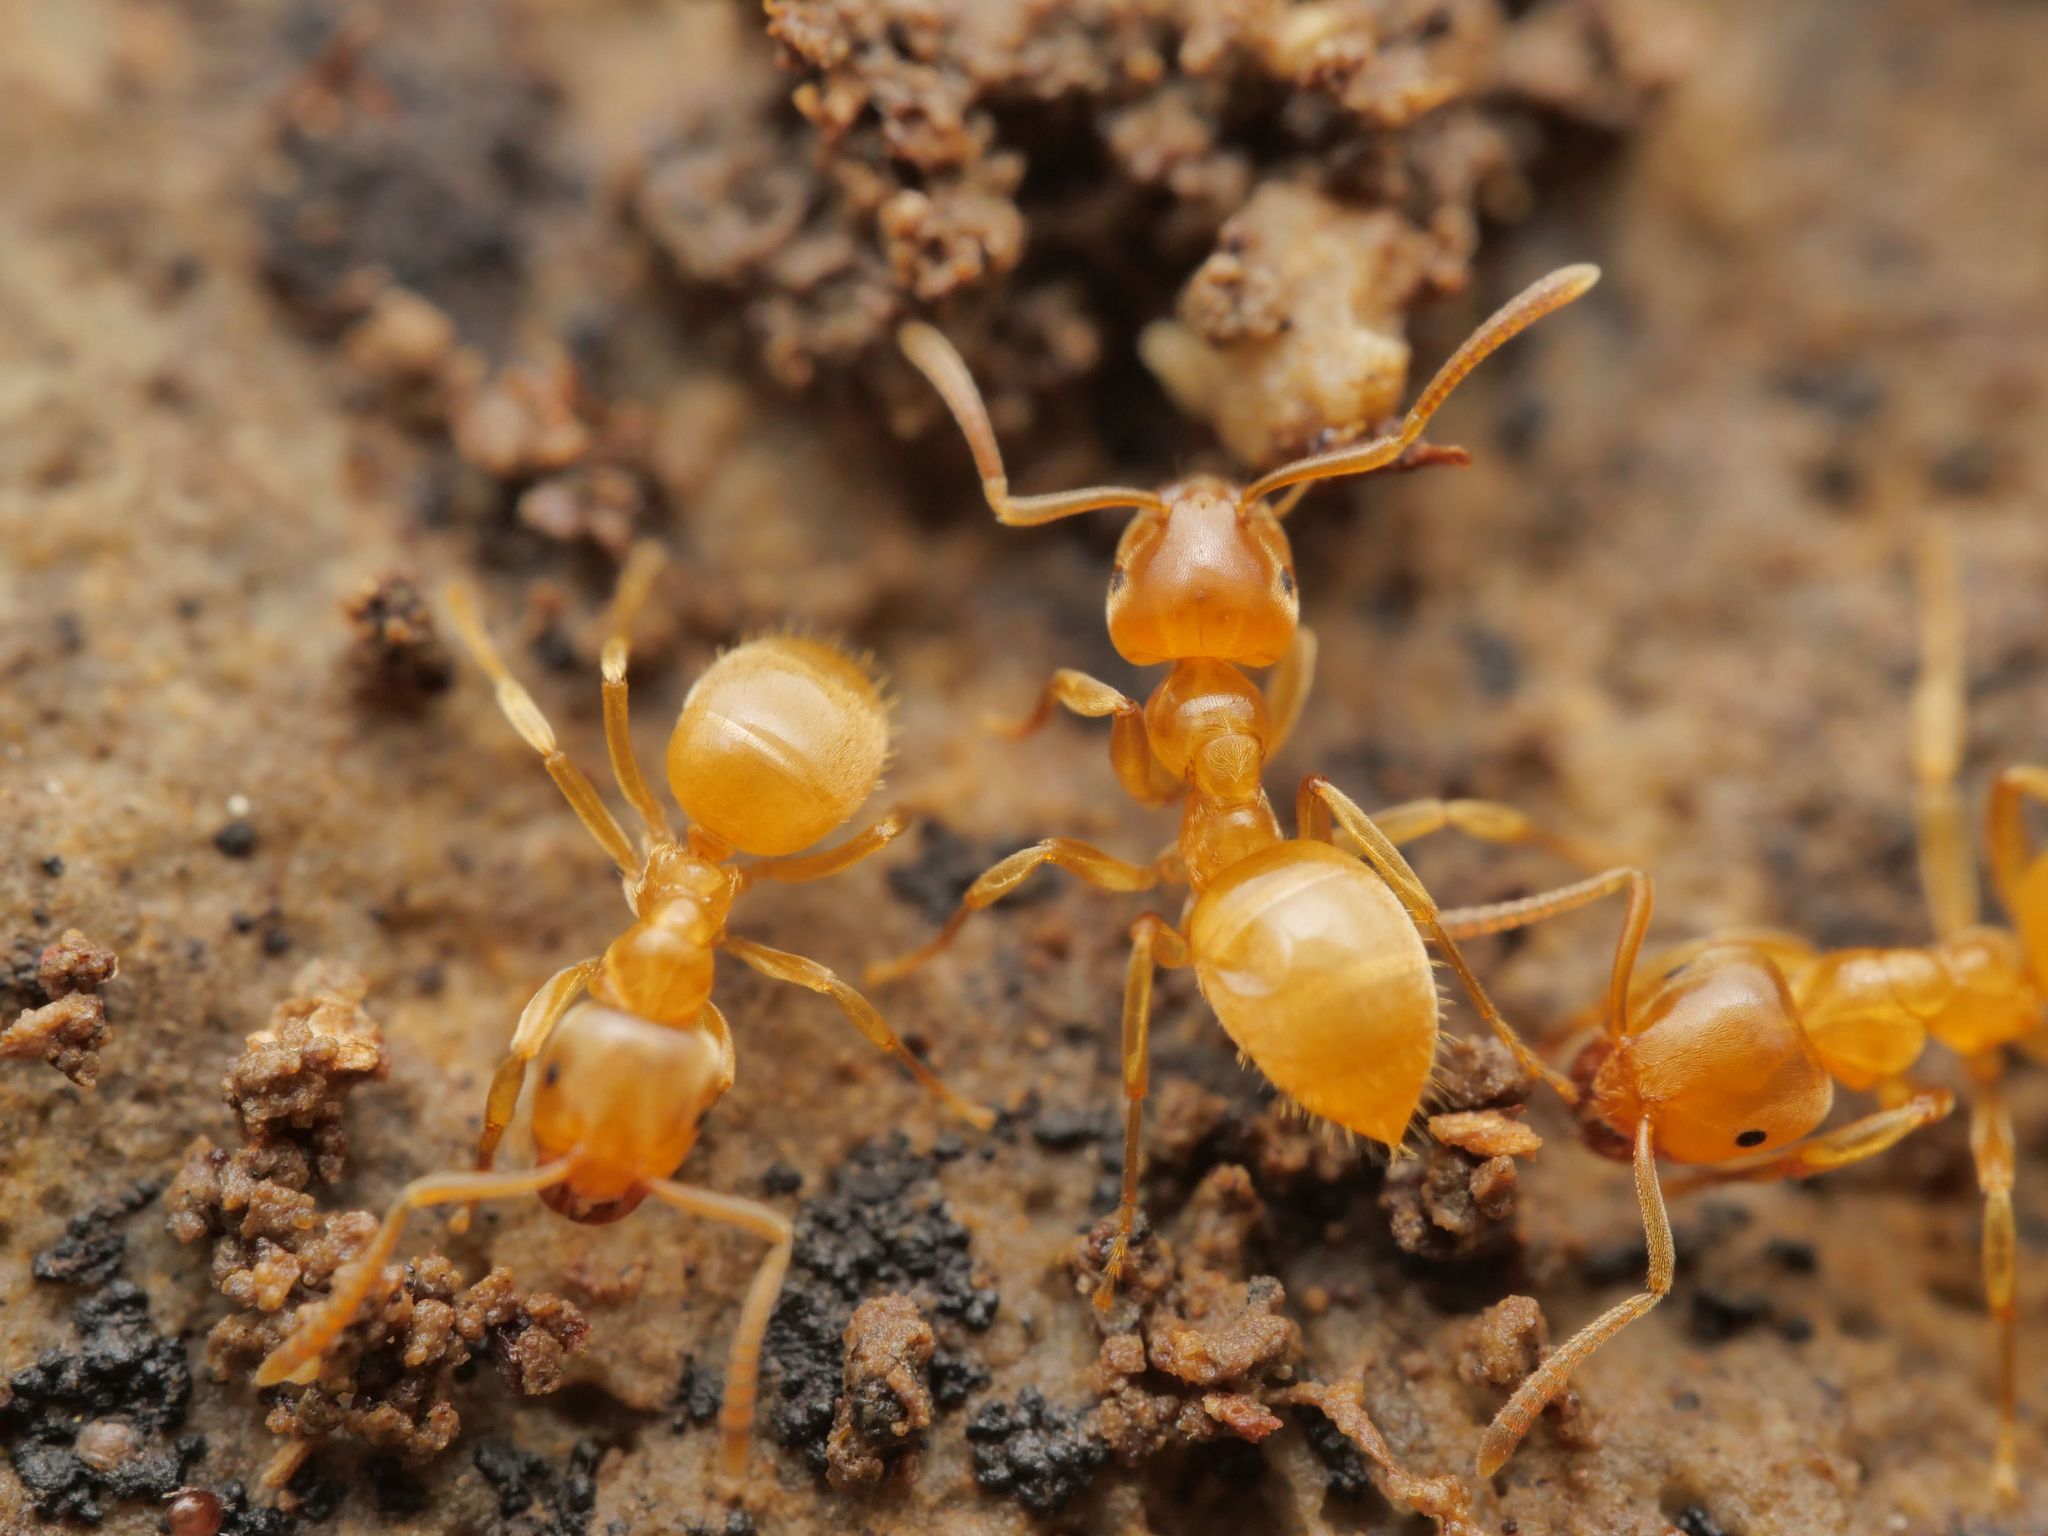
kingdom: Animalia
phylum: Arthropoda
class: Insecta
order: Hymenoptera
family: Formicidae
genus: Lasius
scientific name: Lasius flavus
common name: Blond field ant
